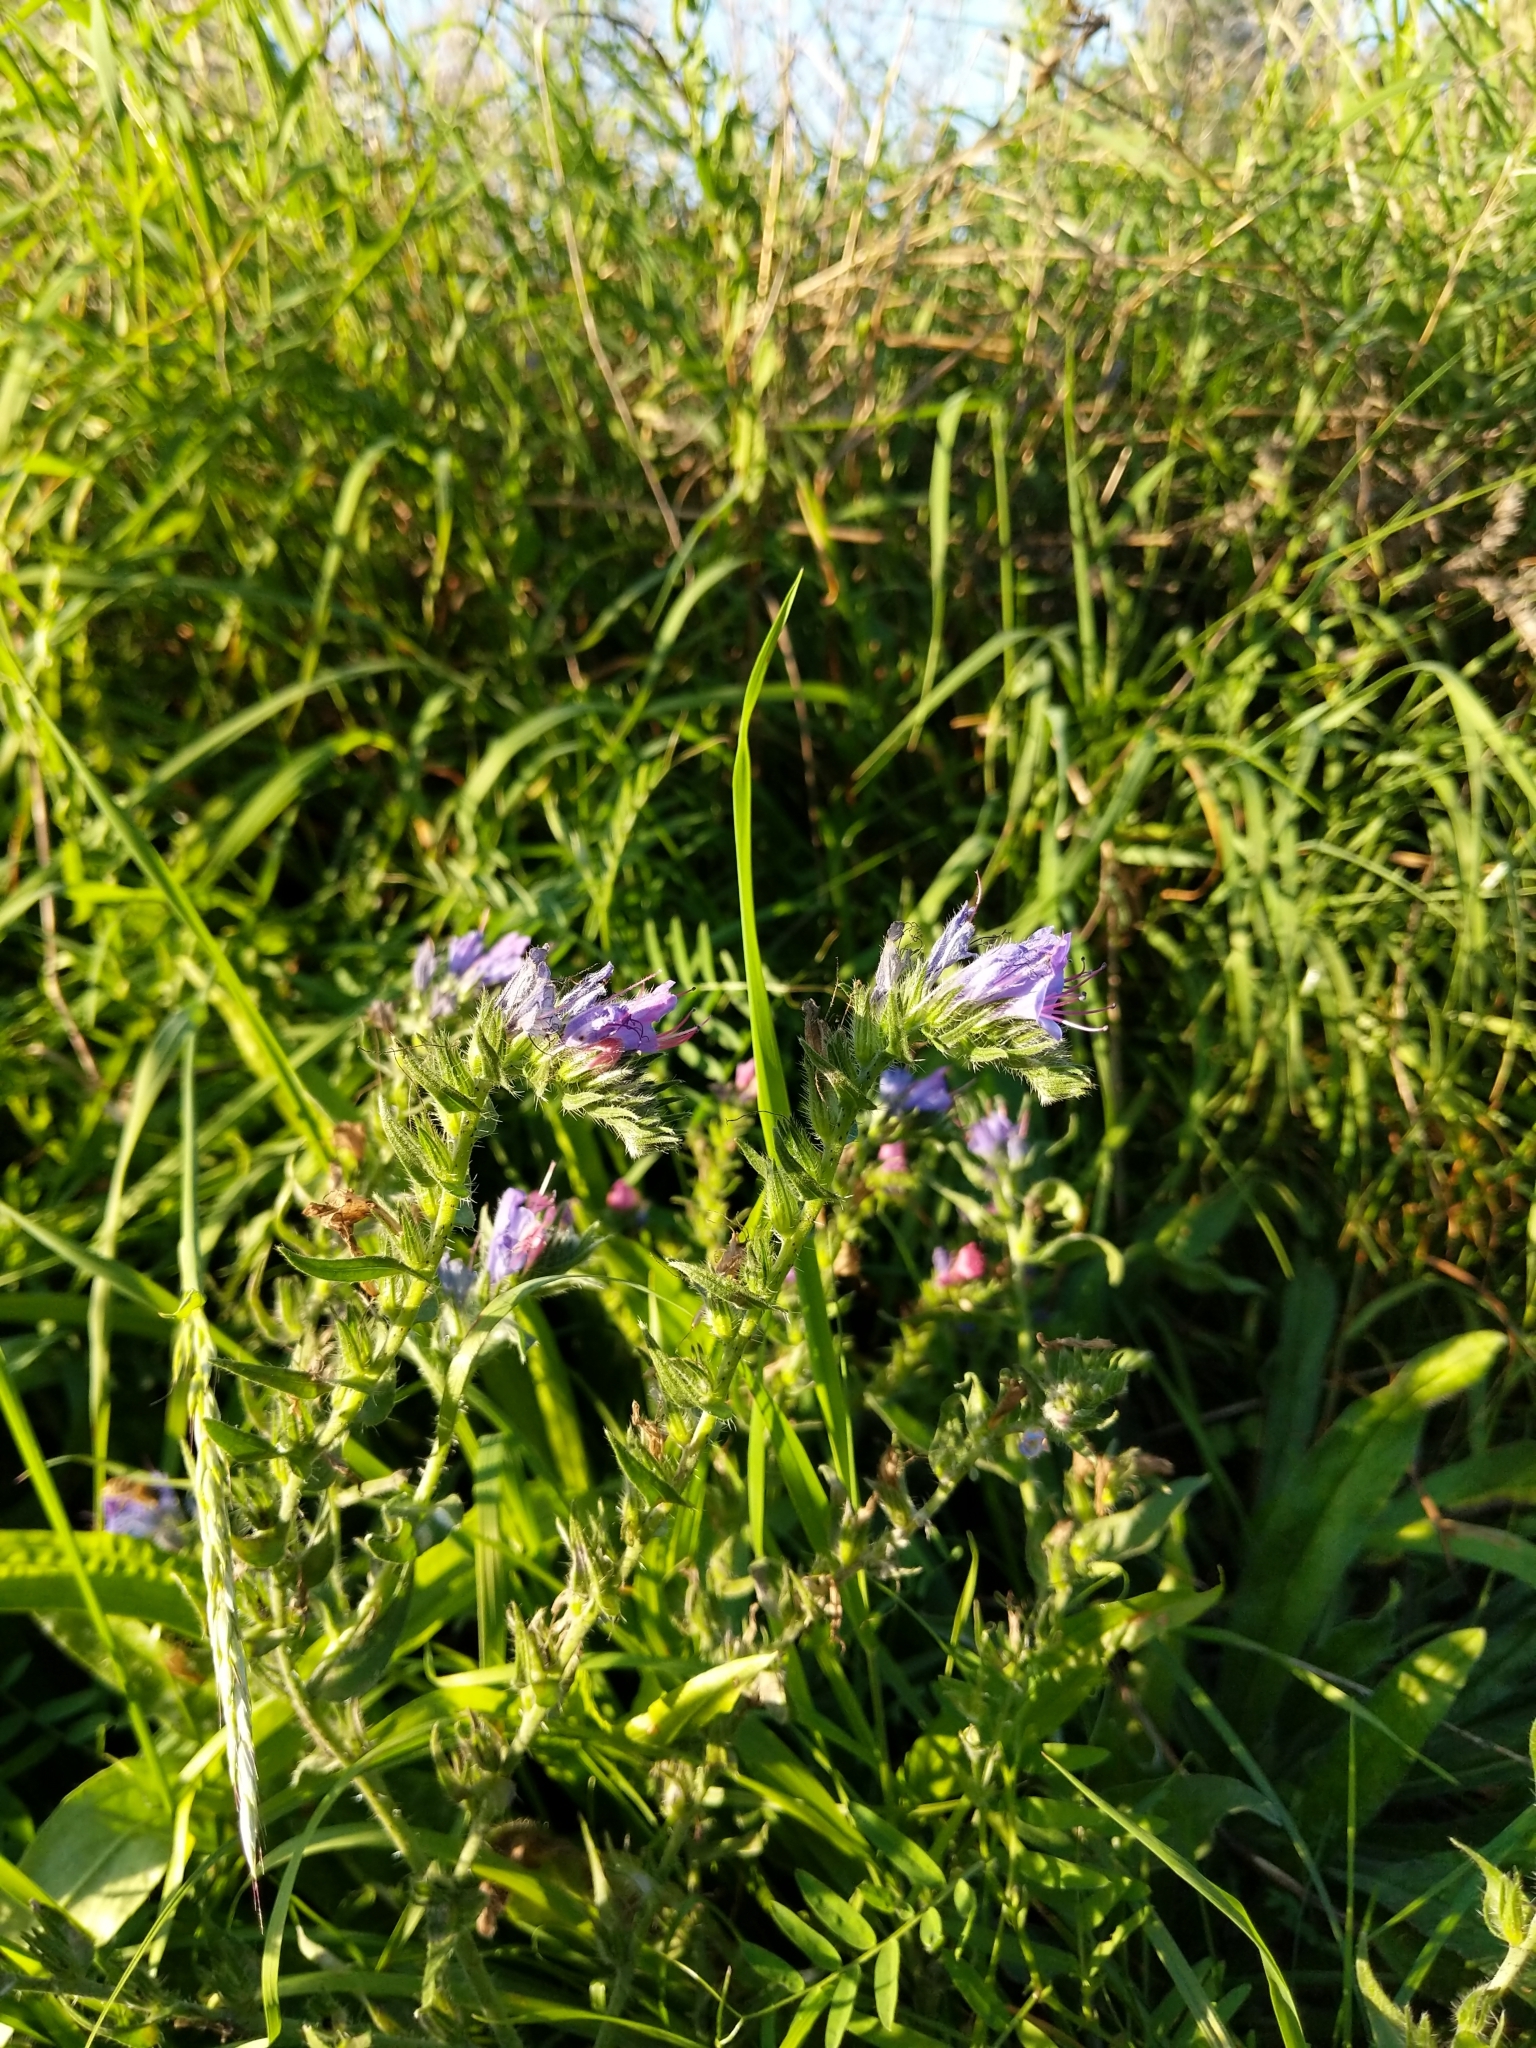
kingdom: Plantae
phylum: Tracheophyta
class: Magnoliopsida
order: Boraginales
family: Boraginaceae
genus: Echium
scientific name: Echium vulgare
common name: Common viper's bugloss
